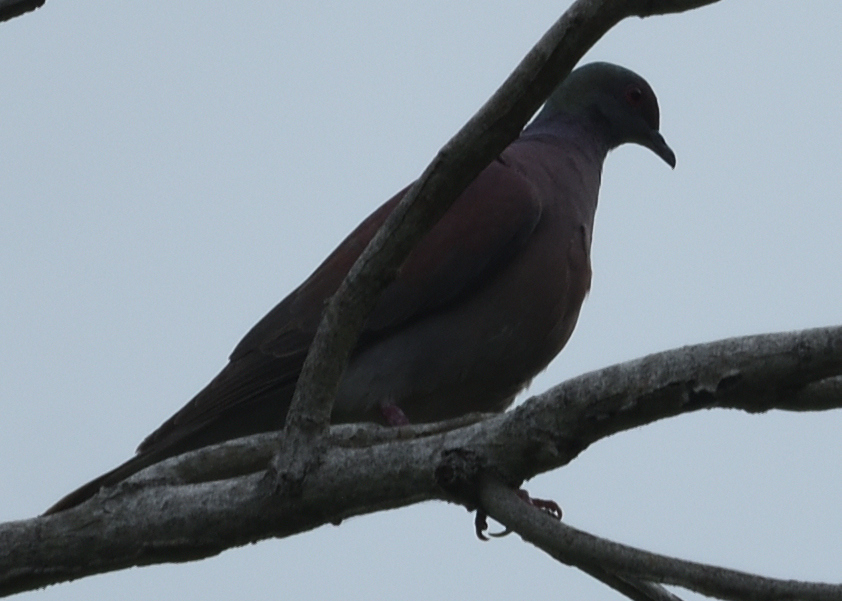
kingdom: Animalia
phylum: Chordata
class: Aves
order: Columbiformes
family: Columbidae
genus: Patagioenas
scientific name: Patagioenas cayennensis
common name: Pale-vented pigeon
